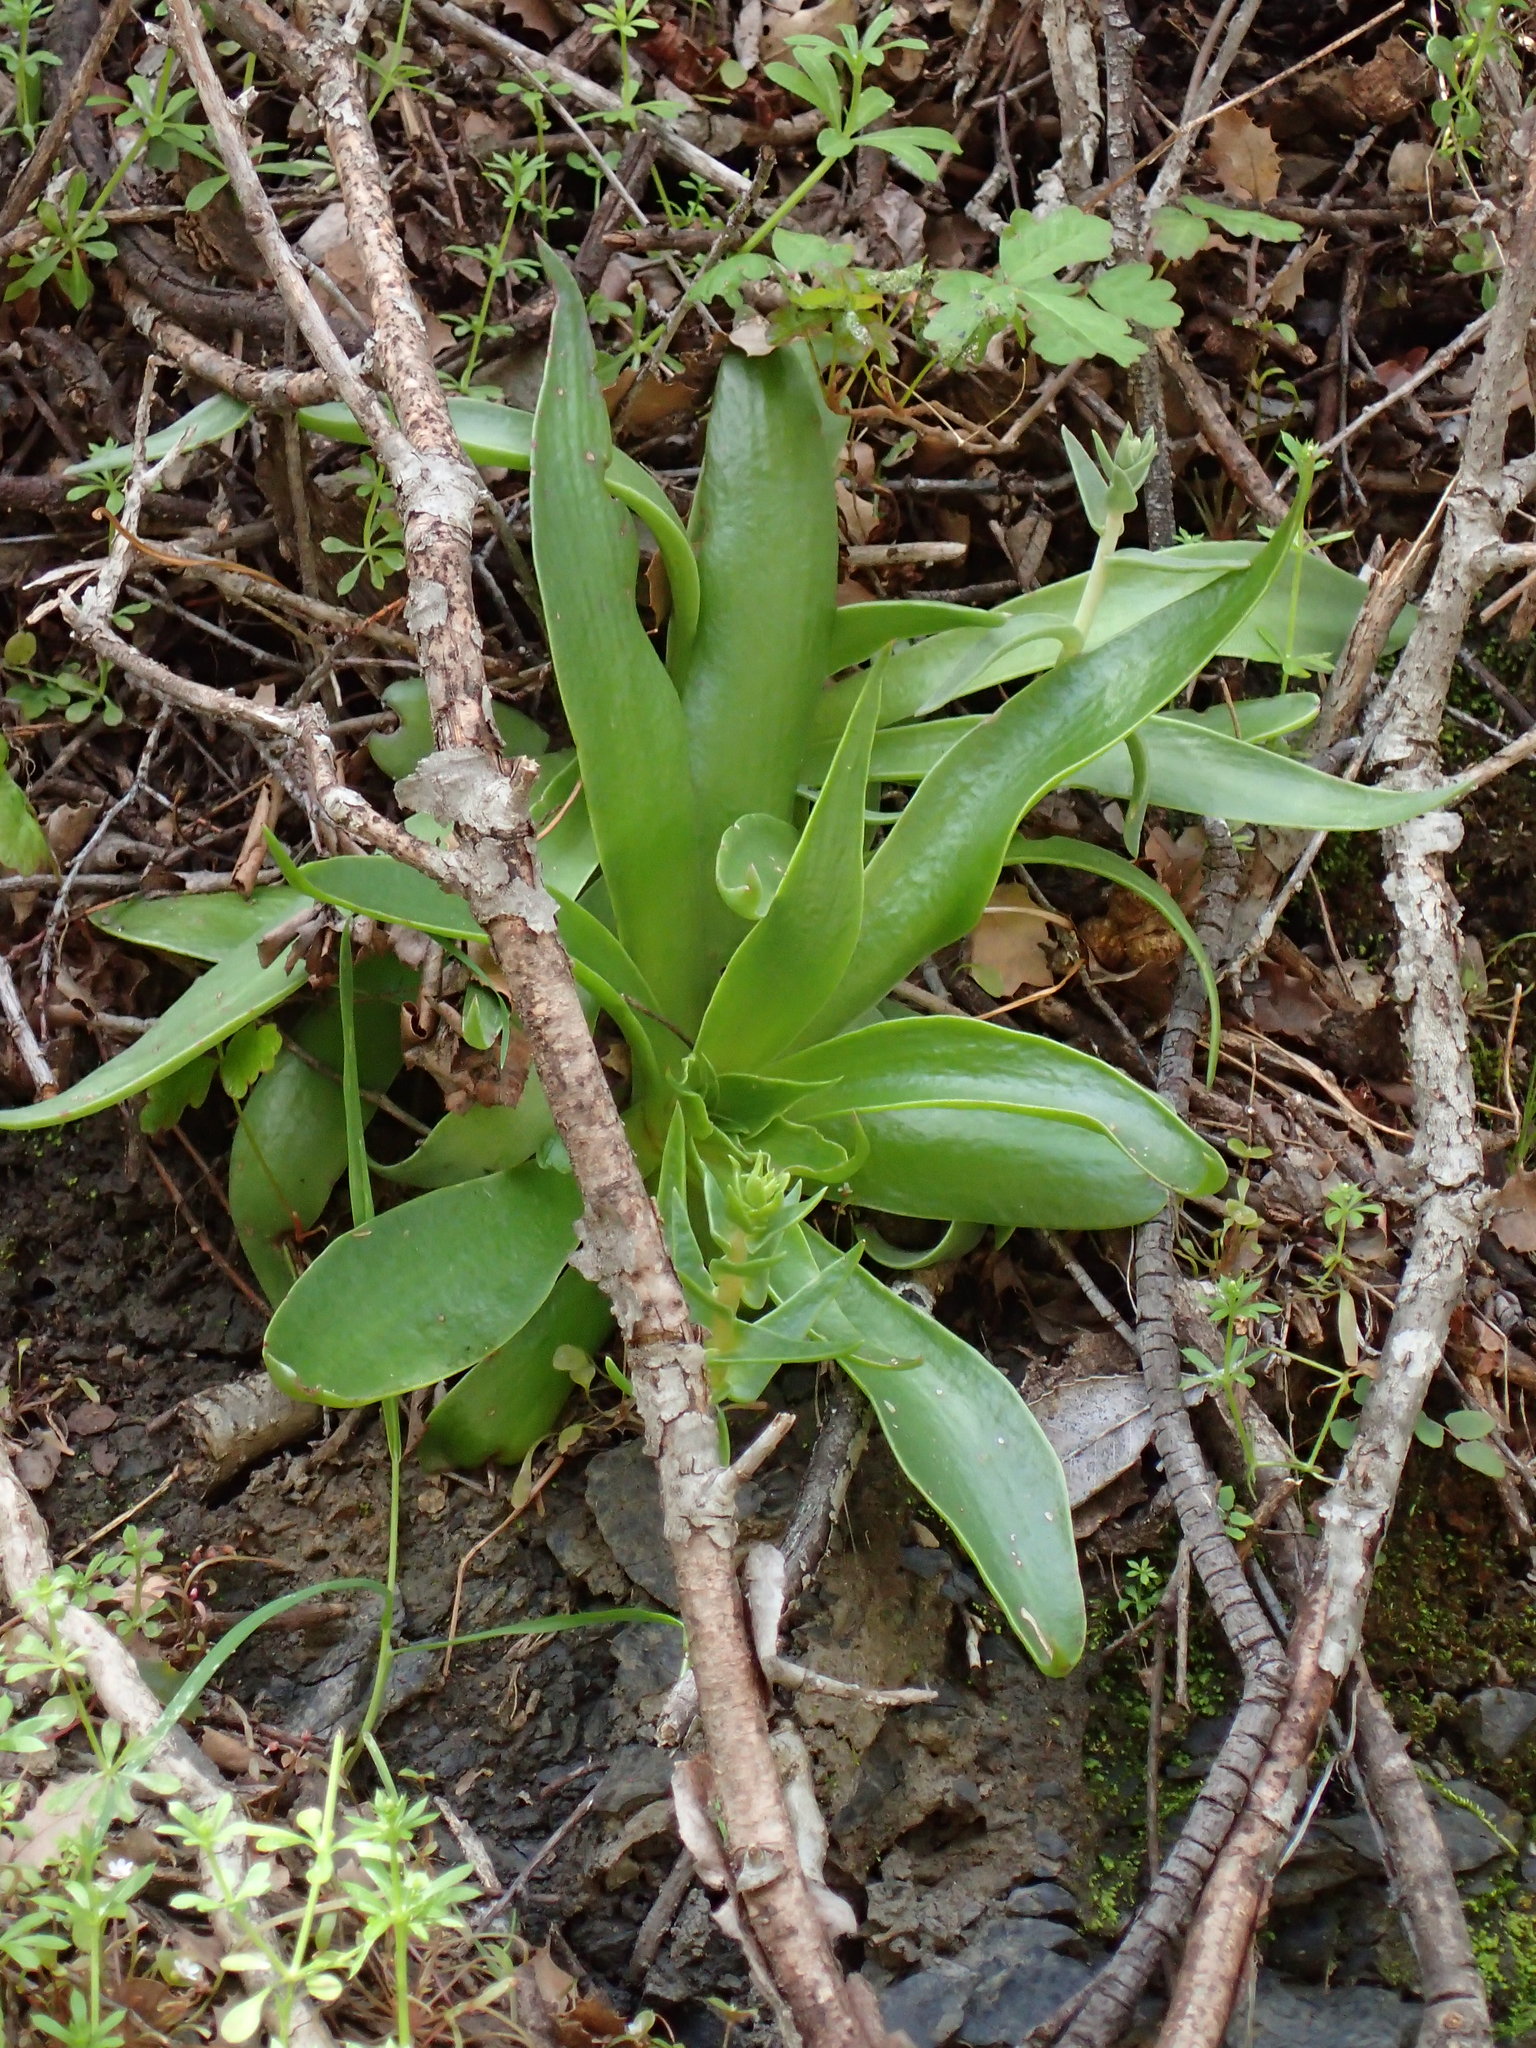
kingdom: Plantae
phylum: Tracheophyta
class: Magnoliopsida
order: Saxifragales
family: Crassulaceae
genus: Dudleya
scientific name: Dudleya lanceolata
